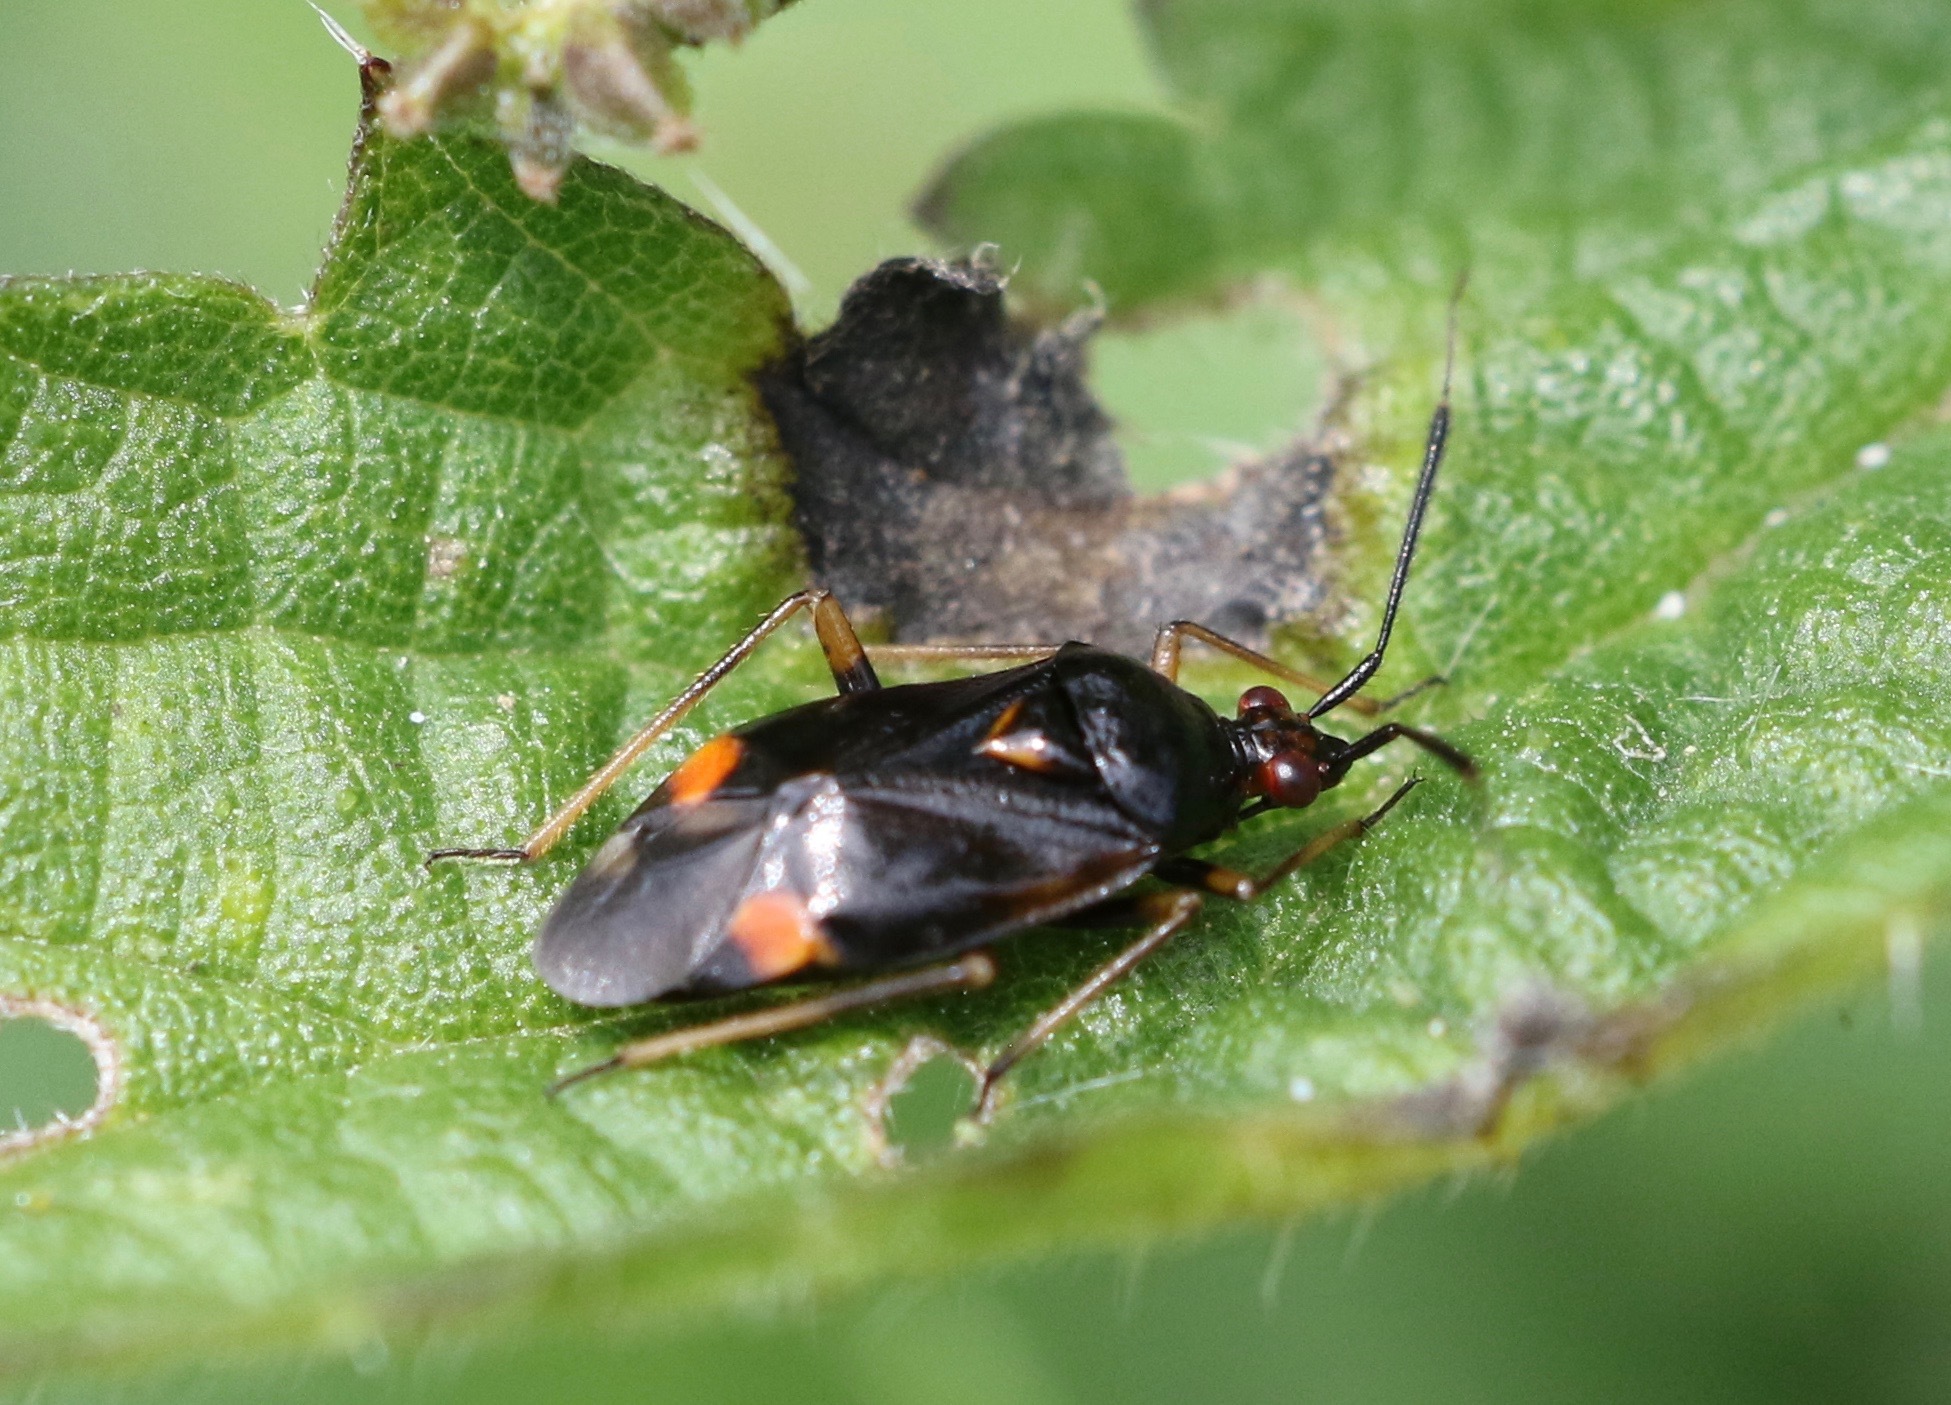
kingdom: Animalia
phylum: Arthropoda
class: Insecta
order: Hemiptera
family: Miridae
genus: Deraeocoris
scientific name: Deraeocoris ruber
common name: Plant bug
